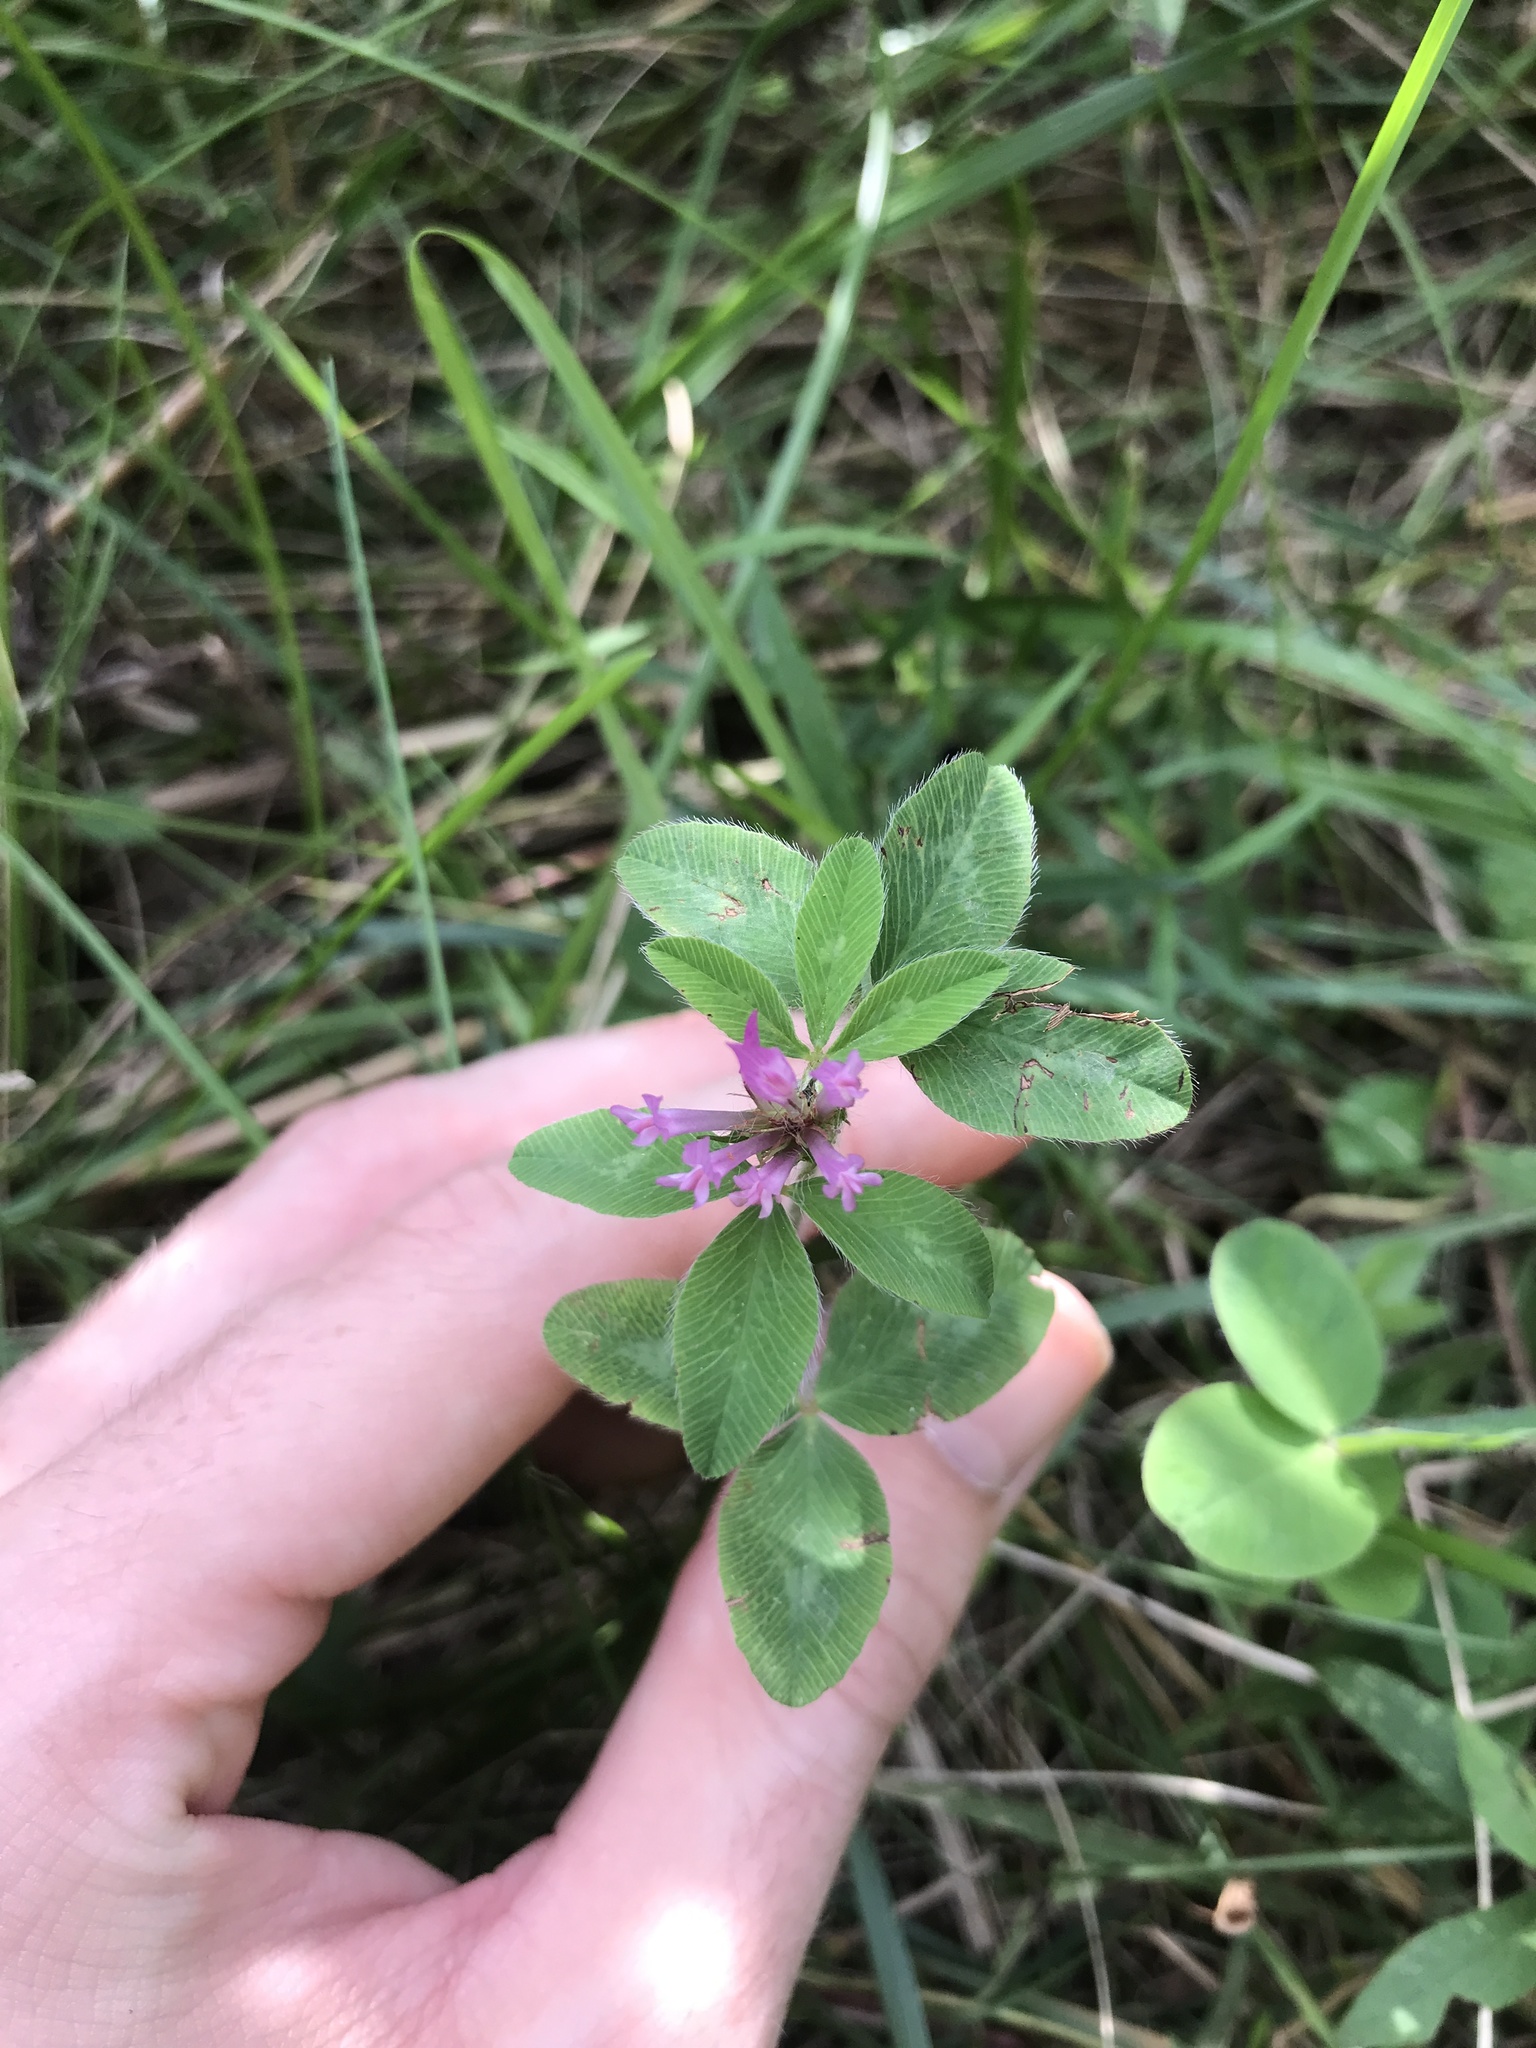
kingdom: Plantae
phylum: Tracheophyta
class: Magnoliopsida
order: Fabales
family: Fabaceae
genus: Trifolium
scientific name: Trifolium pratense
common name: Red clover
